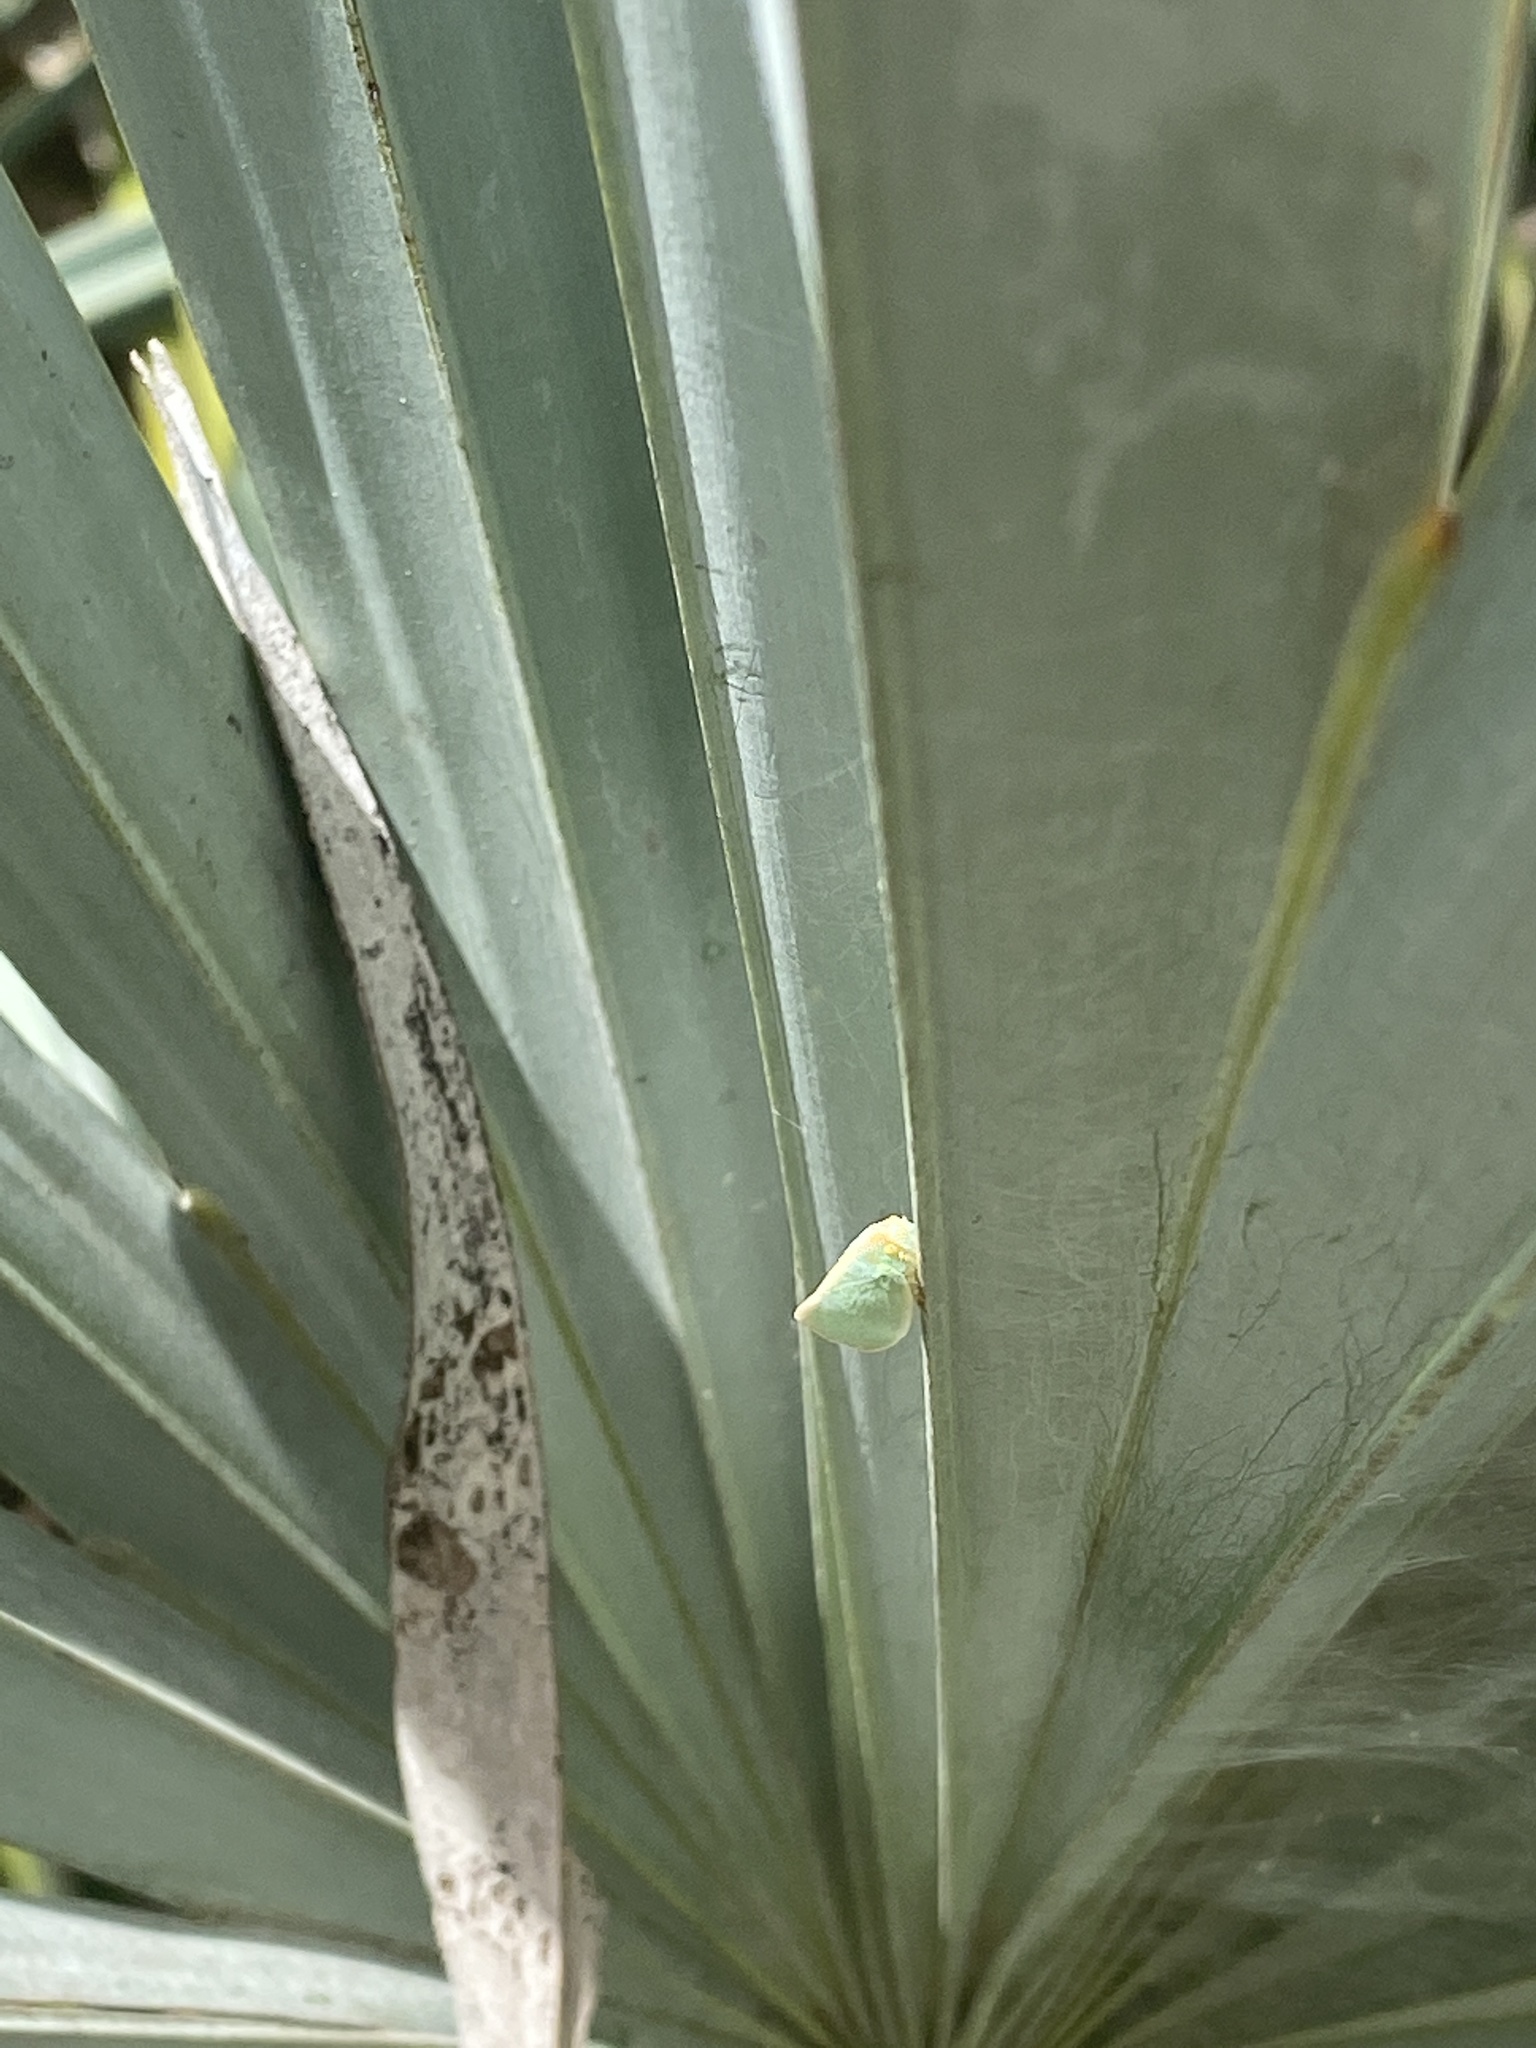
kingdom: Animalia
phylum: Arthropoda
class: Insecta
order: Hemiptera
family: Flatidae
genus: Ormenaria
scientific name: Ormenaria rufifascia
